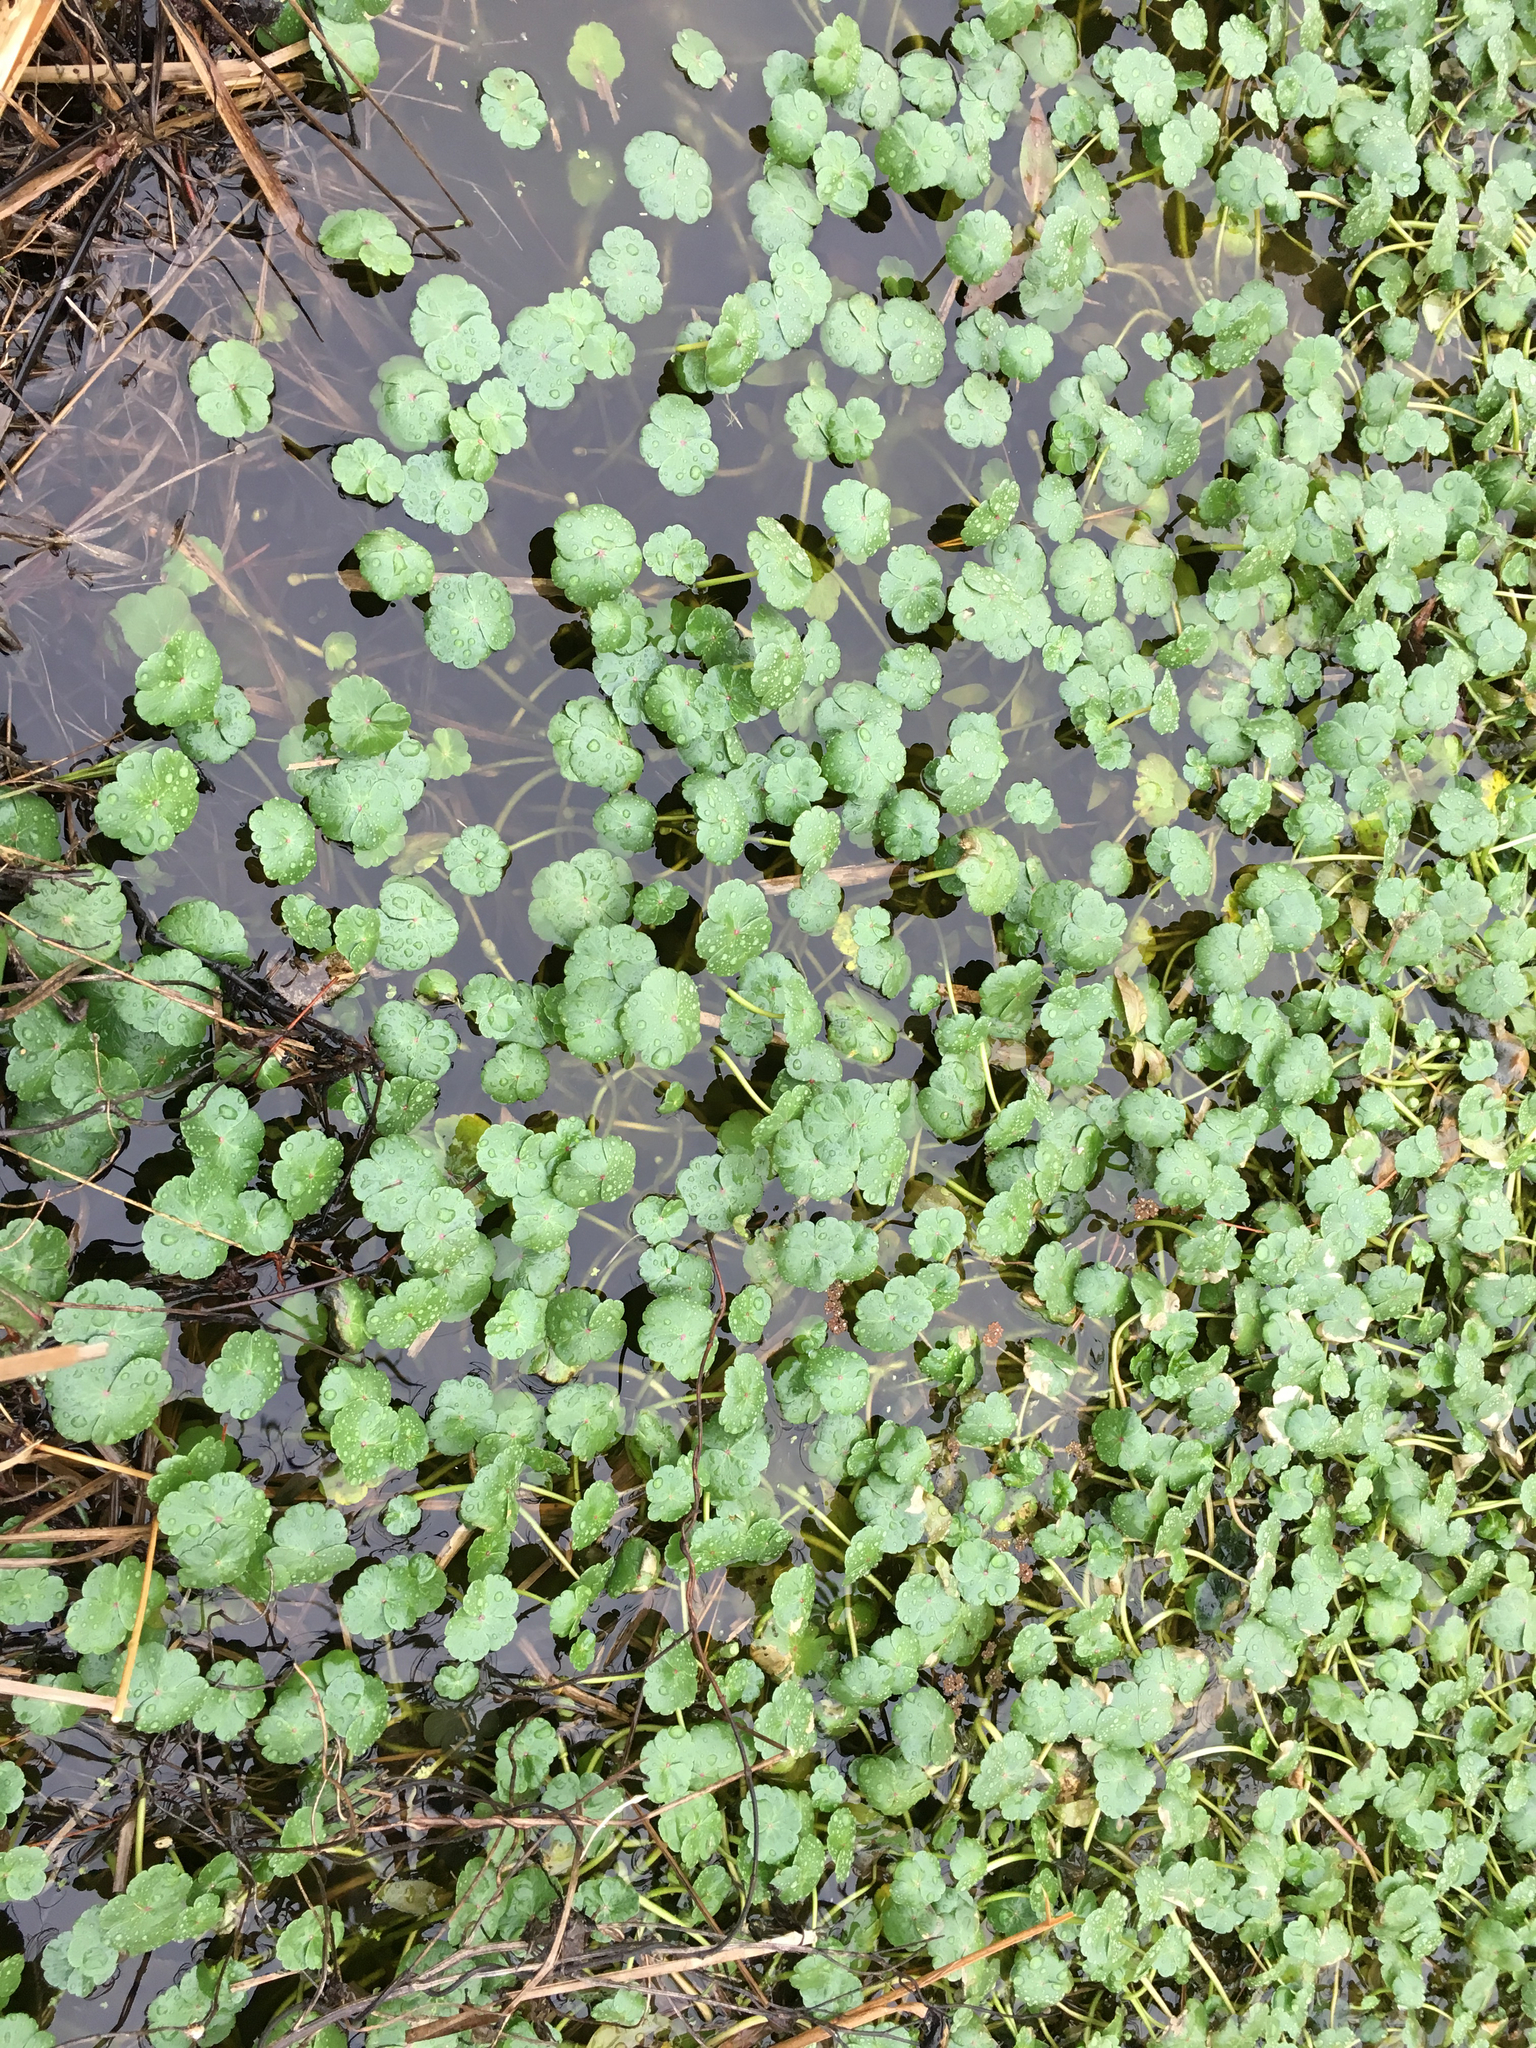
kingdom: Plantae
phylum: Tracheophyta
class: Magnoliopsida
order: Apiales
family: Araliaceae
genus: Hydrocotyle
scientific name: Hydrocotyle ranunculoides
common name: Floating pennywort
